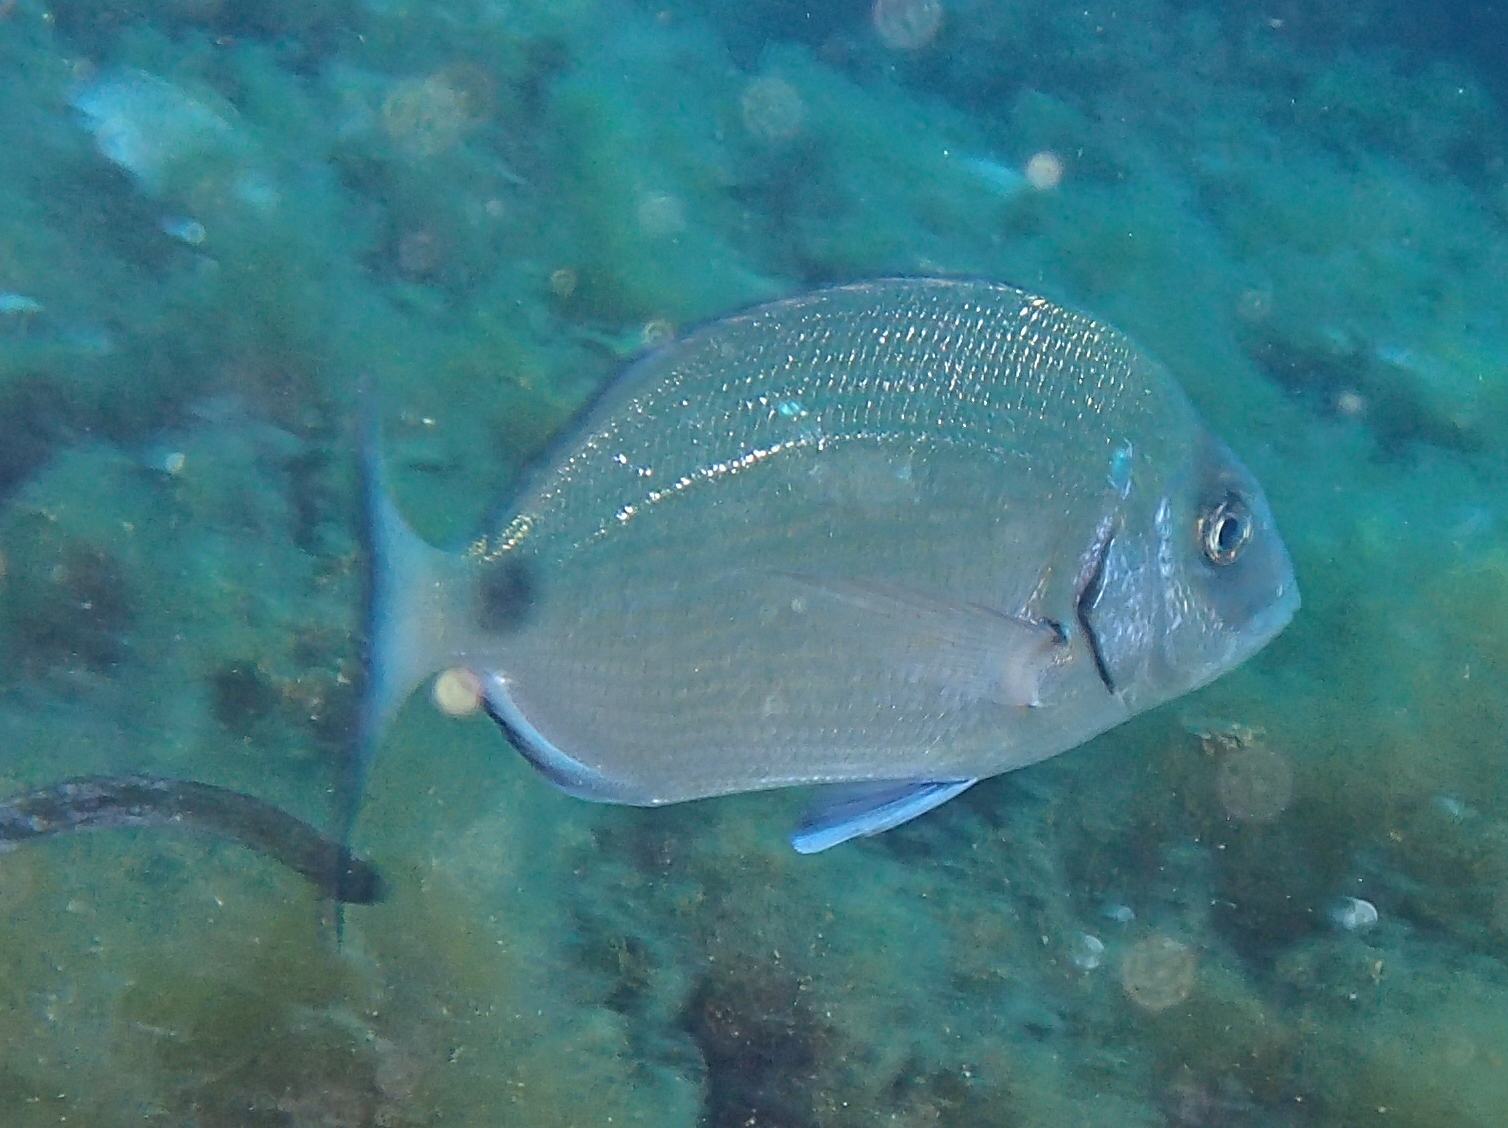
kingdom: Animalia
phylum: Chordata
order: Perciformes
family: Sparidae
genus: Diplodus
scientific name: Diplodus sargus
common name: White seabream
